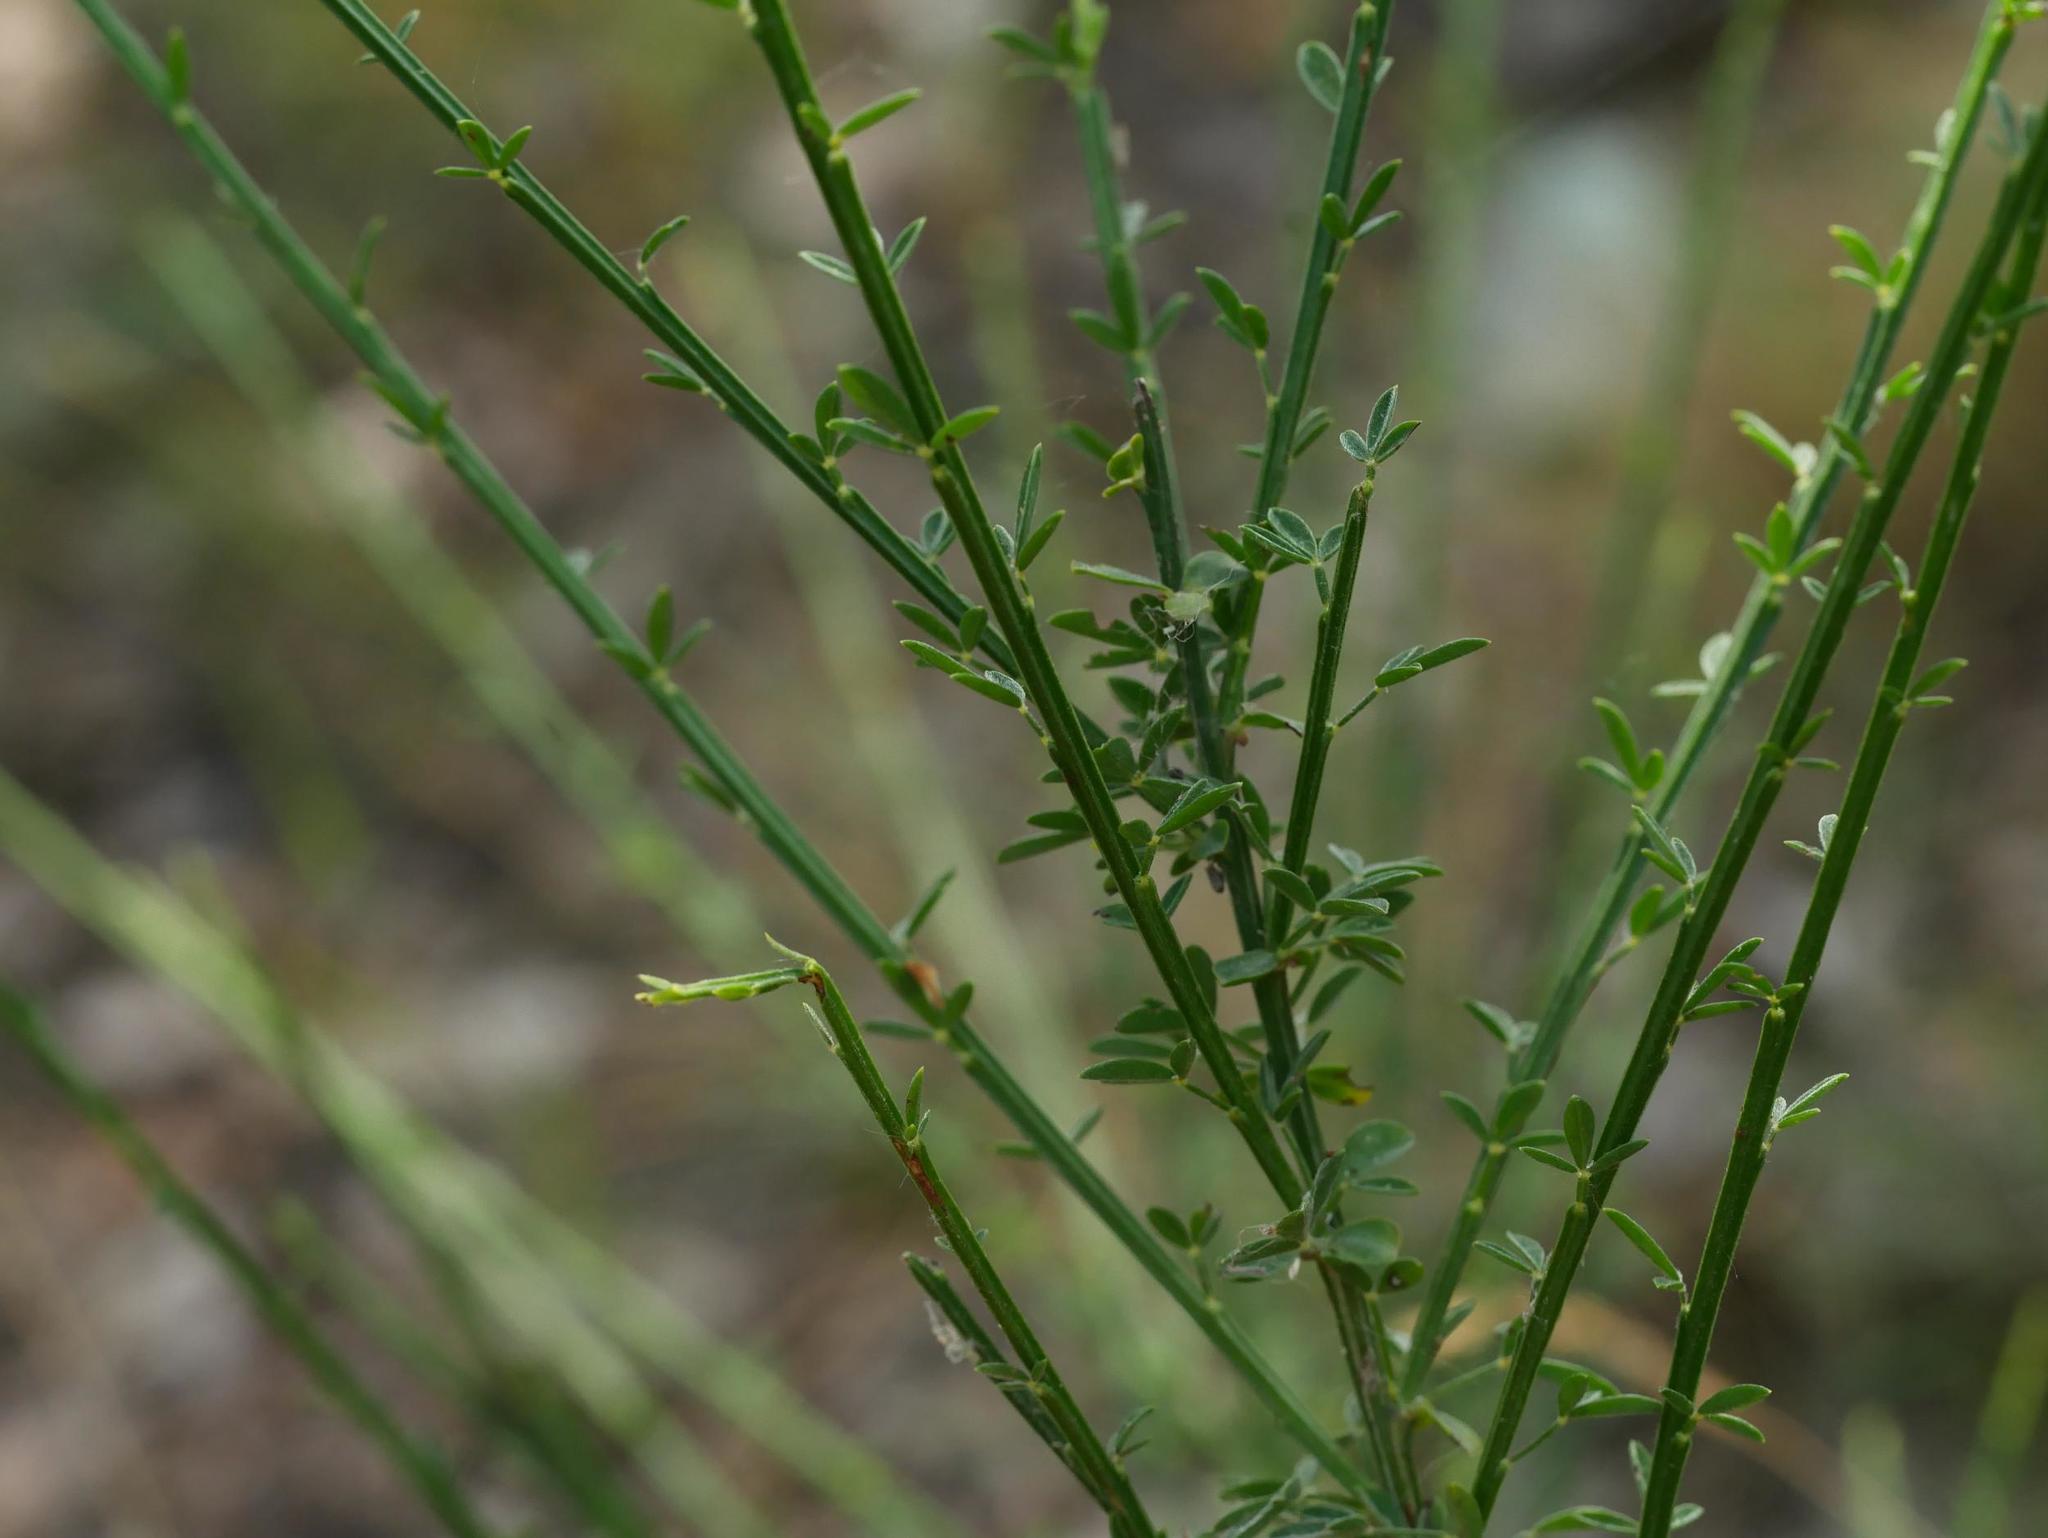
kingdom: Plantae
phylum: Tracheophyta
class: Magnoliopsida
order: Fabales
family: Fabaceae
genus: Cytisus
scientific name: Cytisus scoparius
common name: Scotch broom
